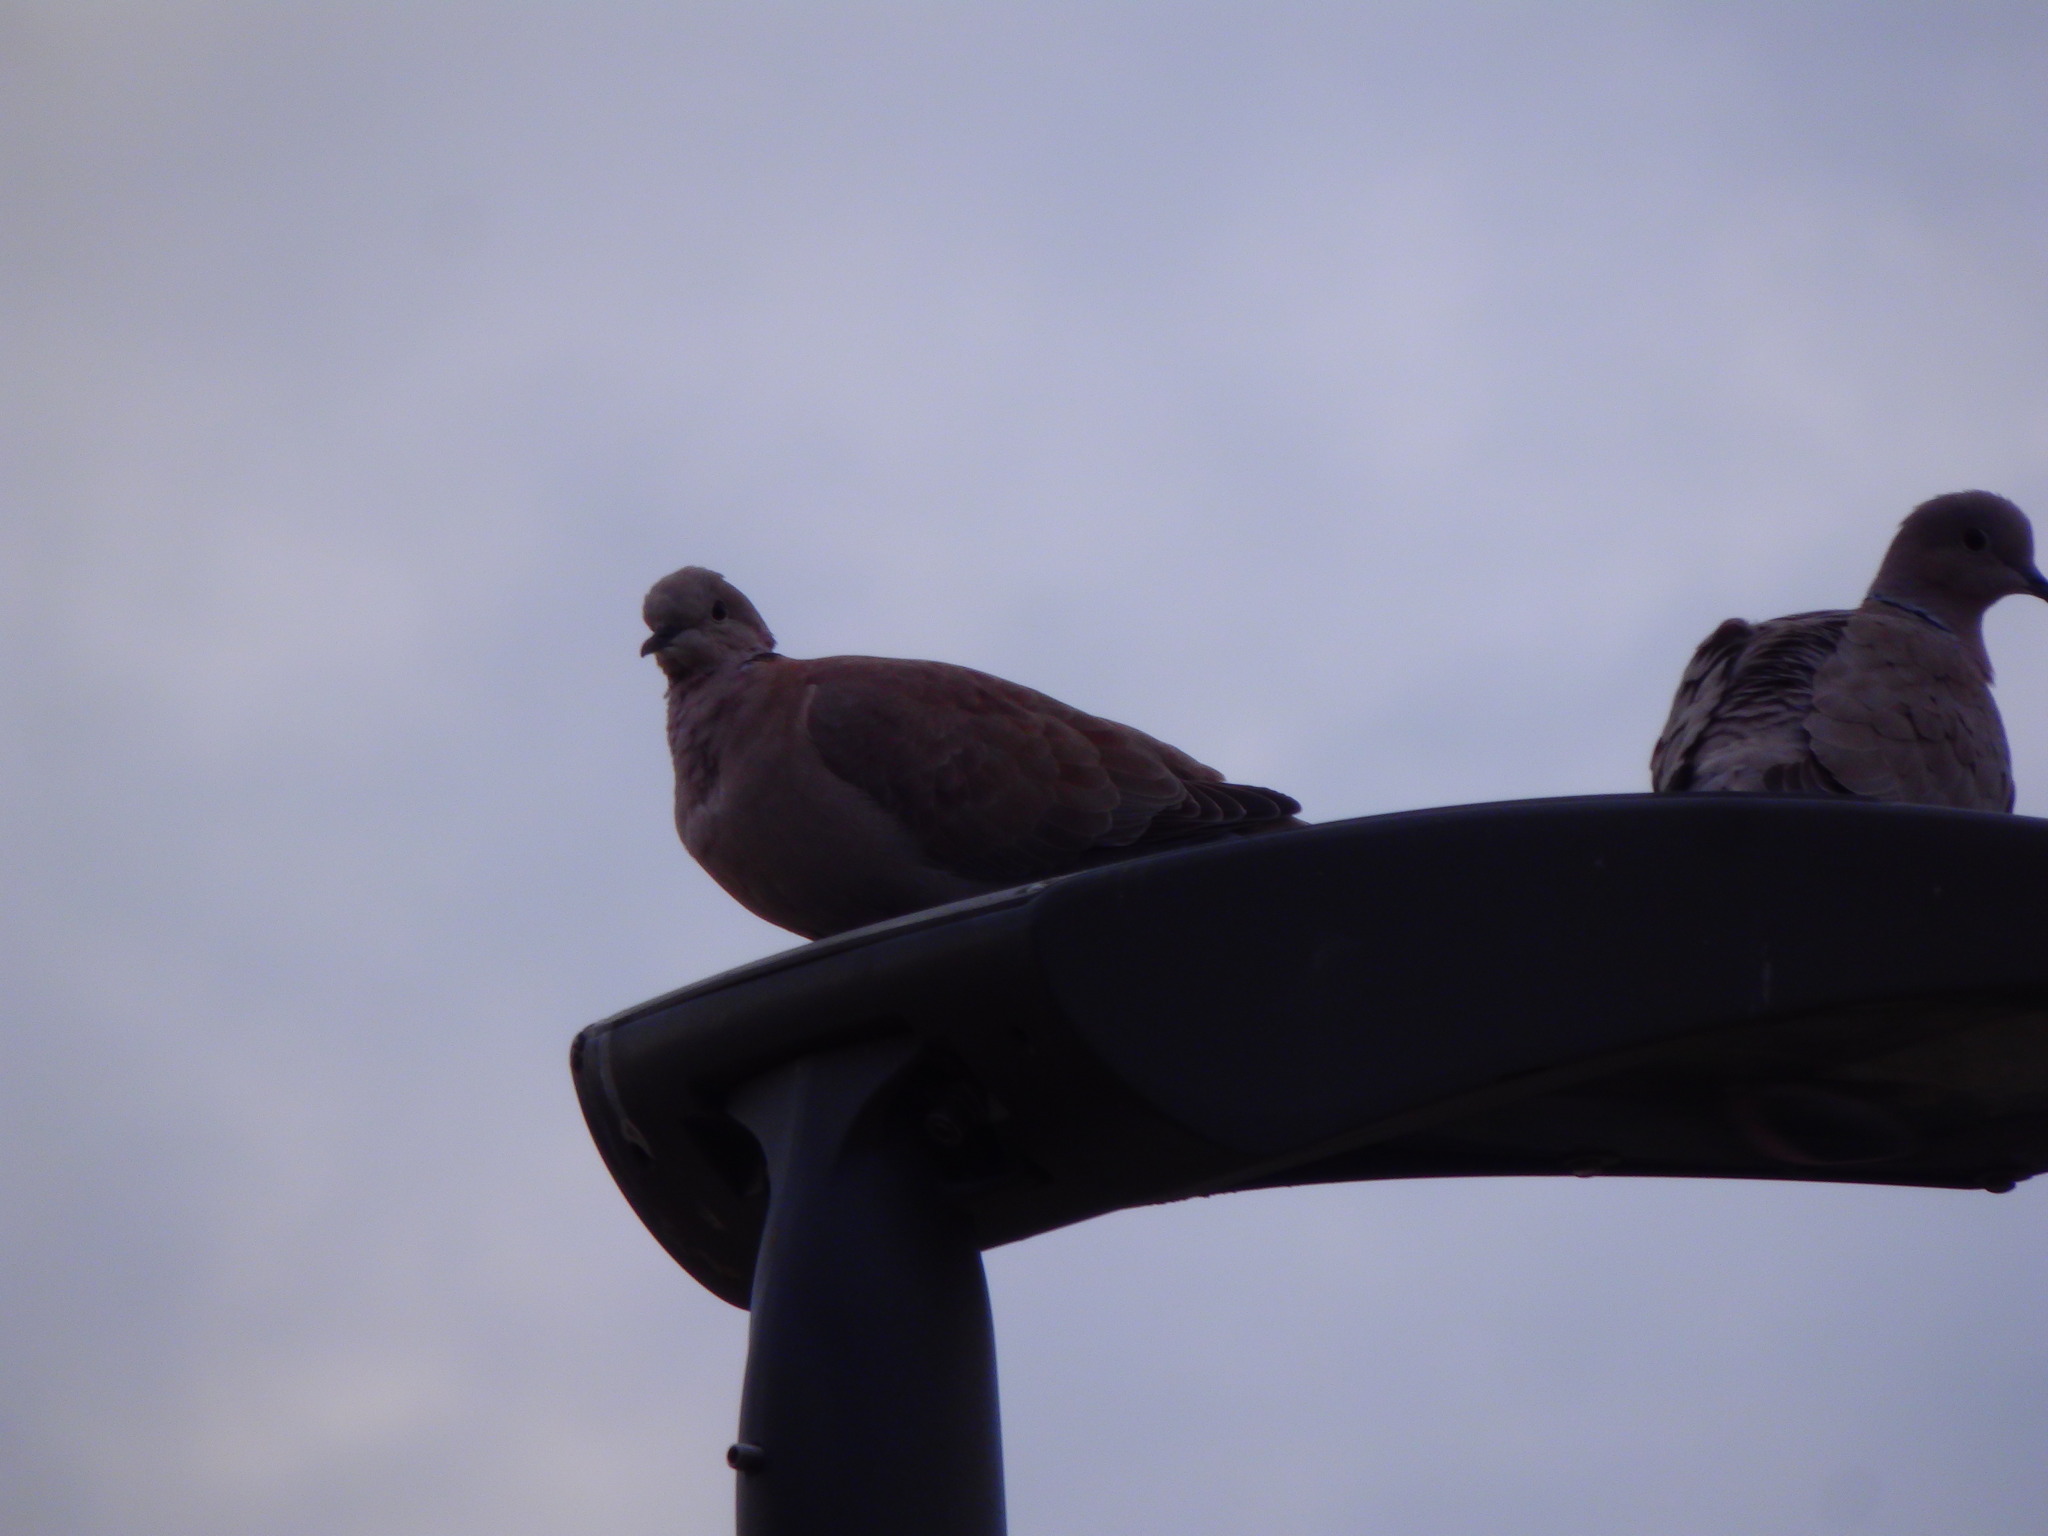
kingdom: Animalia
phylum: Chordata
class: Aves
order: Columbiformes
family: Columbidae
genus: Streptopelia
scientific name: Streptopelia decaocto
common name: Eurasian collared dove
